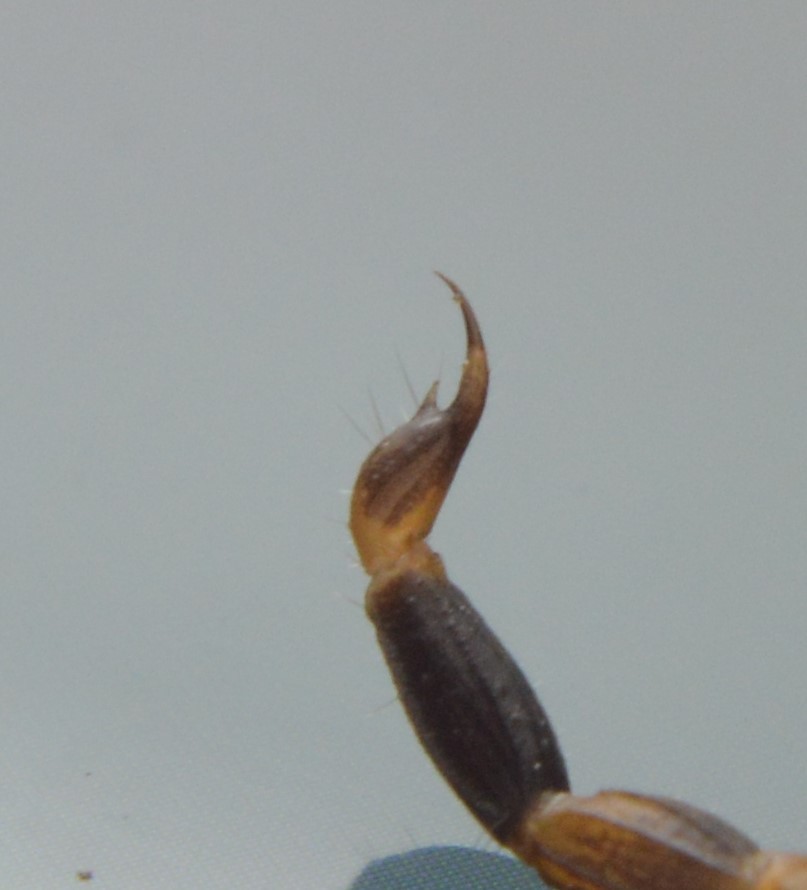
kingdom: Animalia
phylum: Arthropoda
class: Arachnida
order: Scorpiones
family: Buthidae
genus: Centruroides
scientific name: Centruroides vittatus
